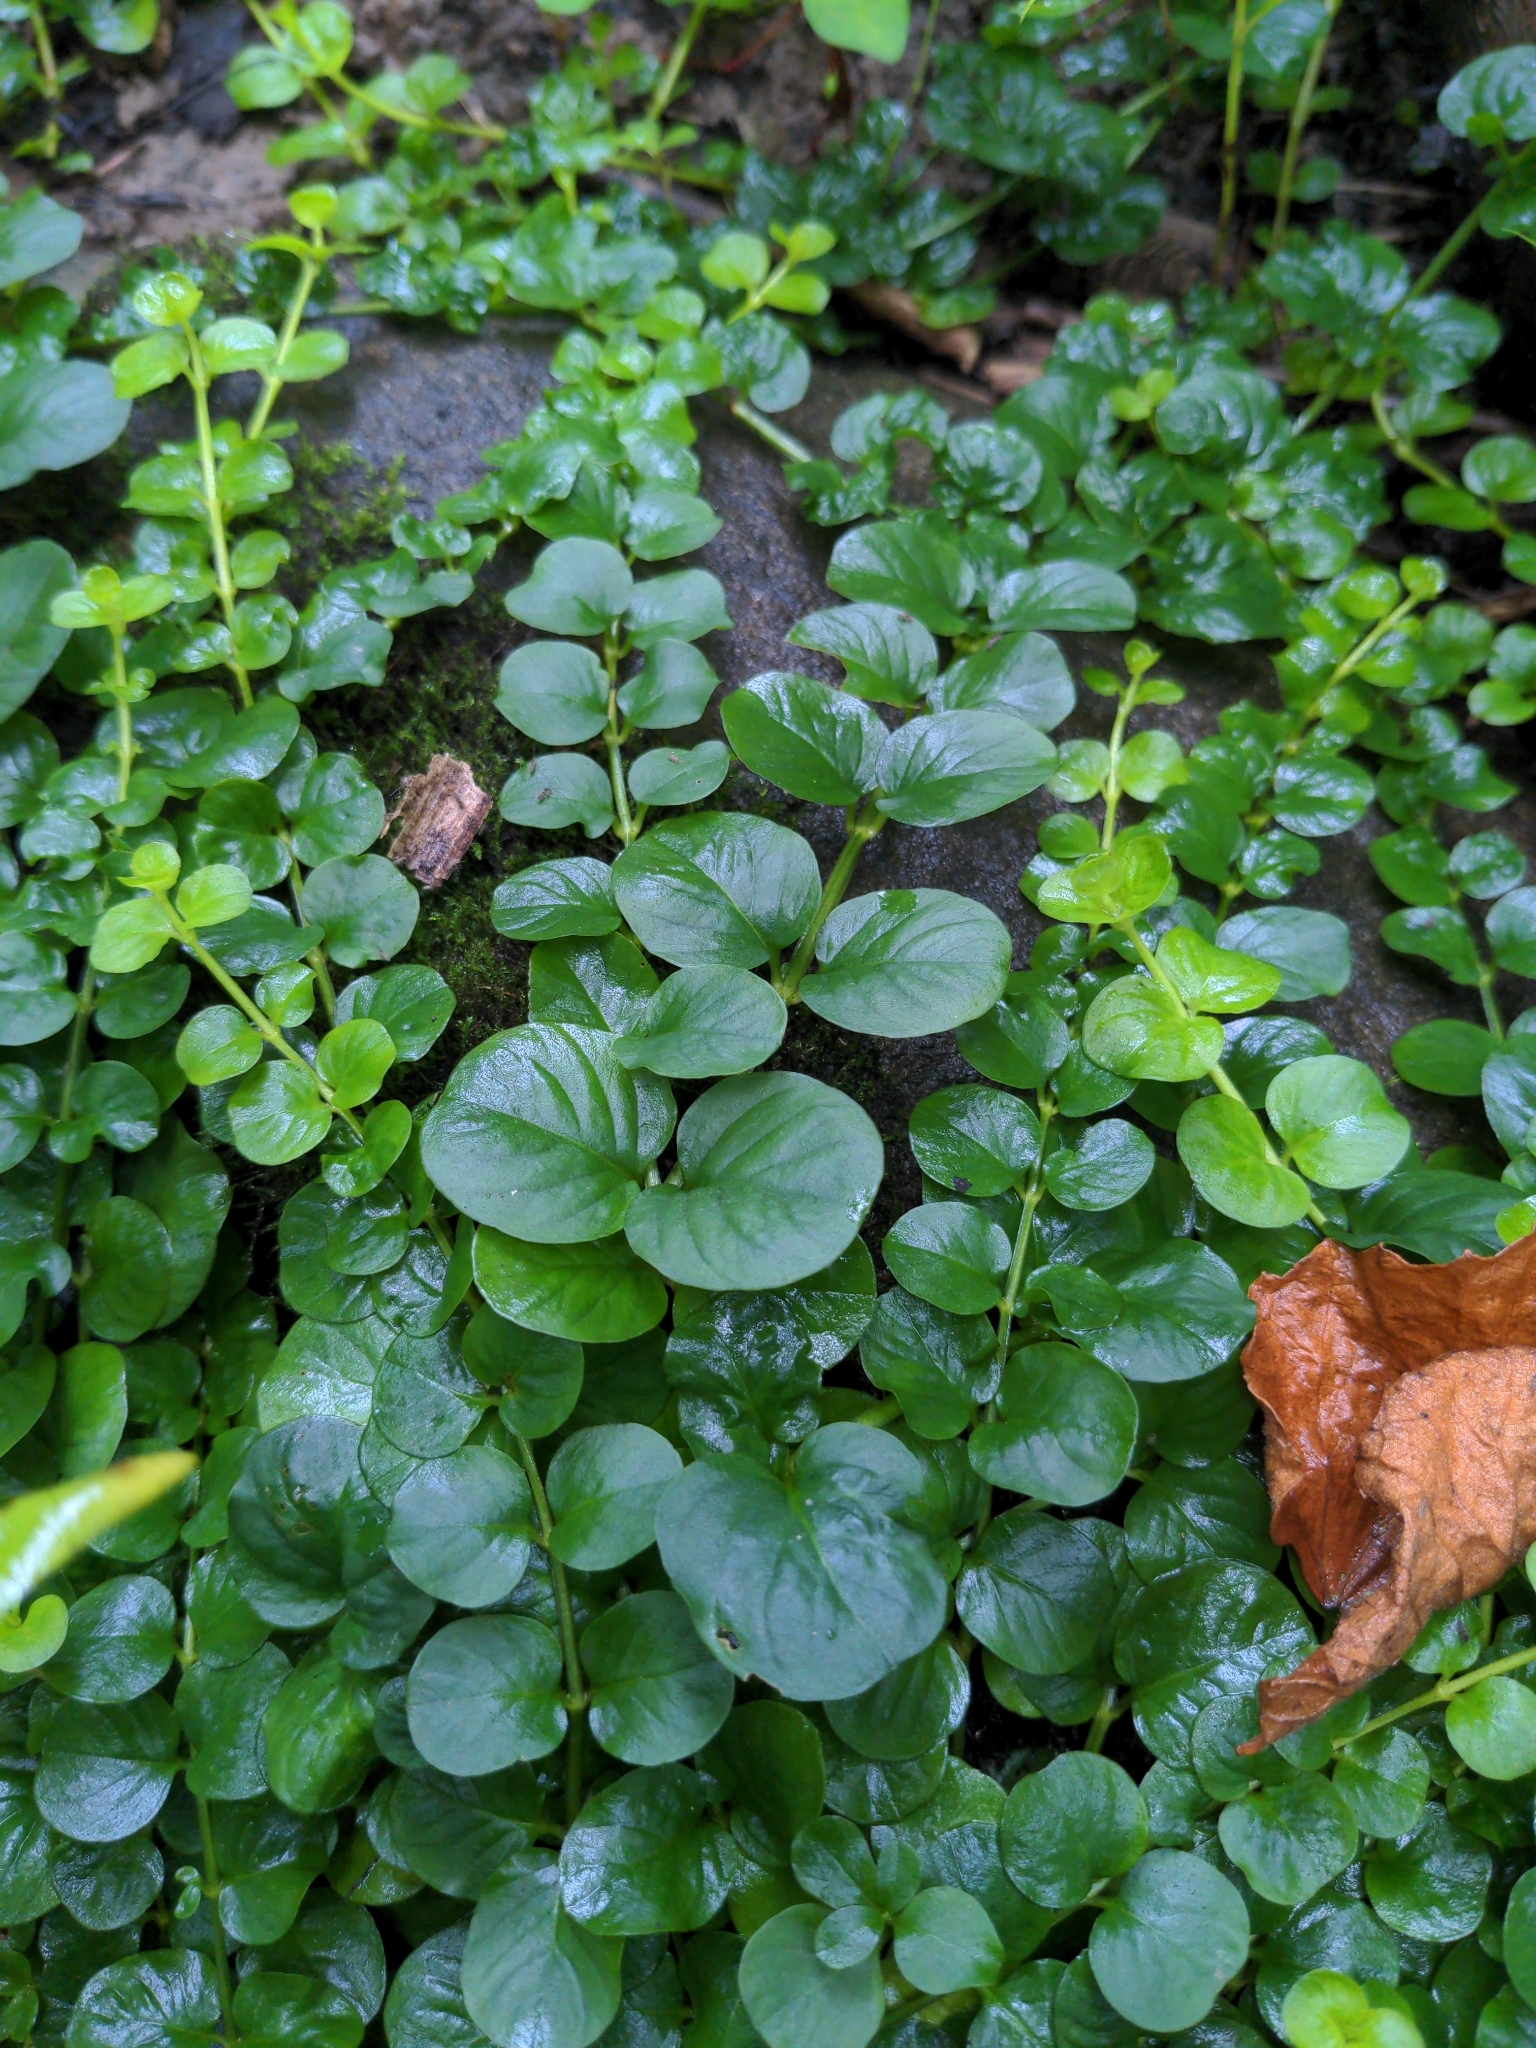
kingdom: Plantae
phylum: Tracheophyta
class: Magnoliopsida
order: Ericales
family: Primulaceae
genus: Lysimachia
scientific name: Lysimachia nummularia
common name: Moneywort
